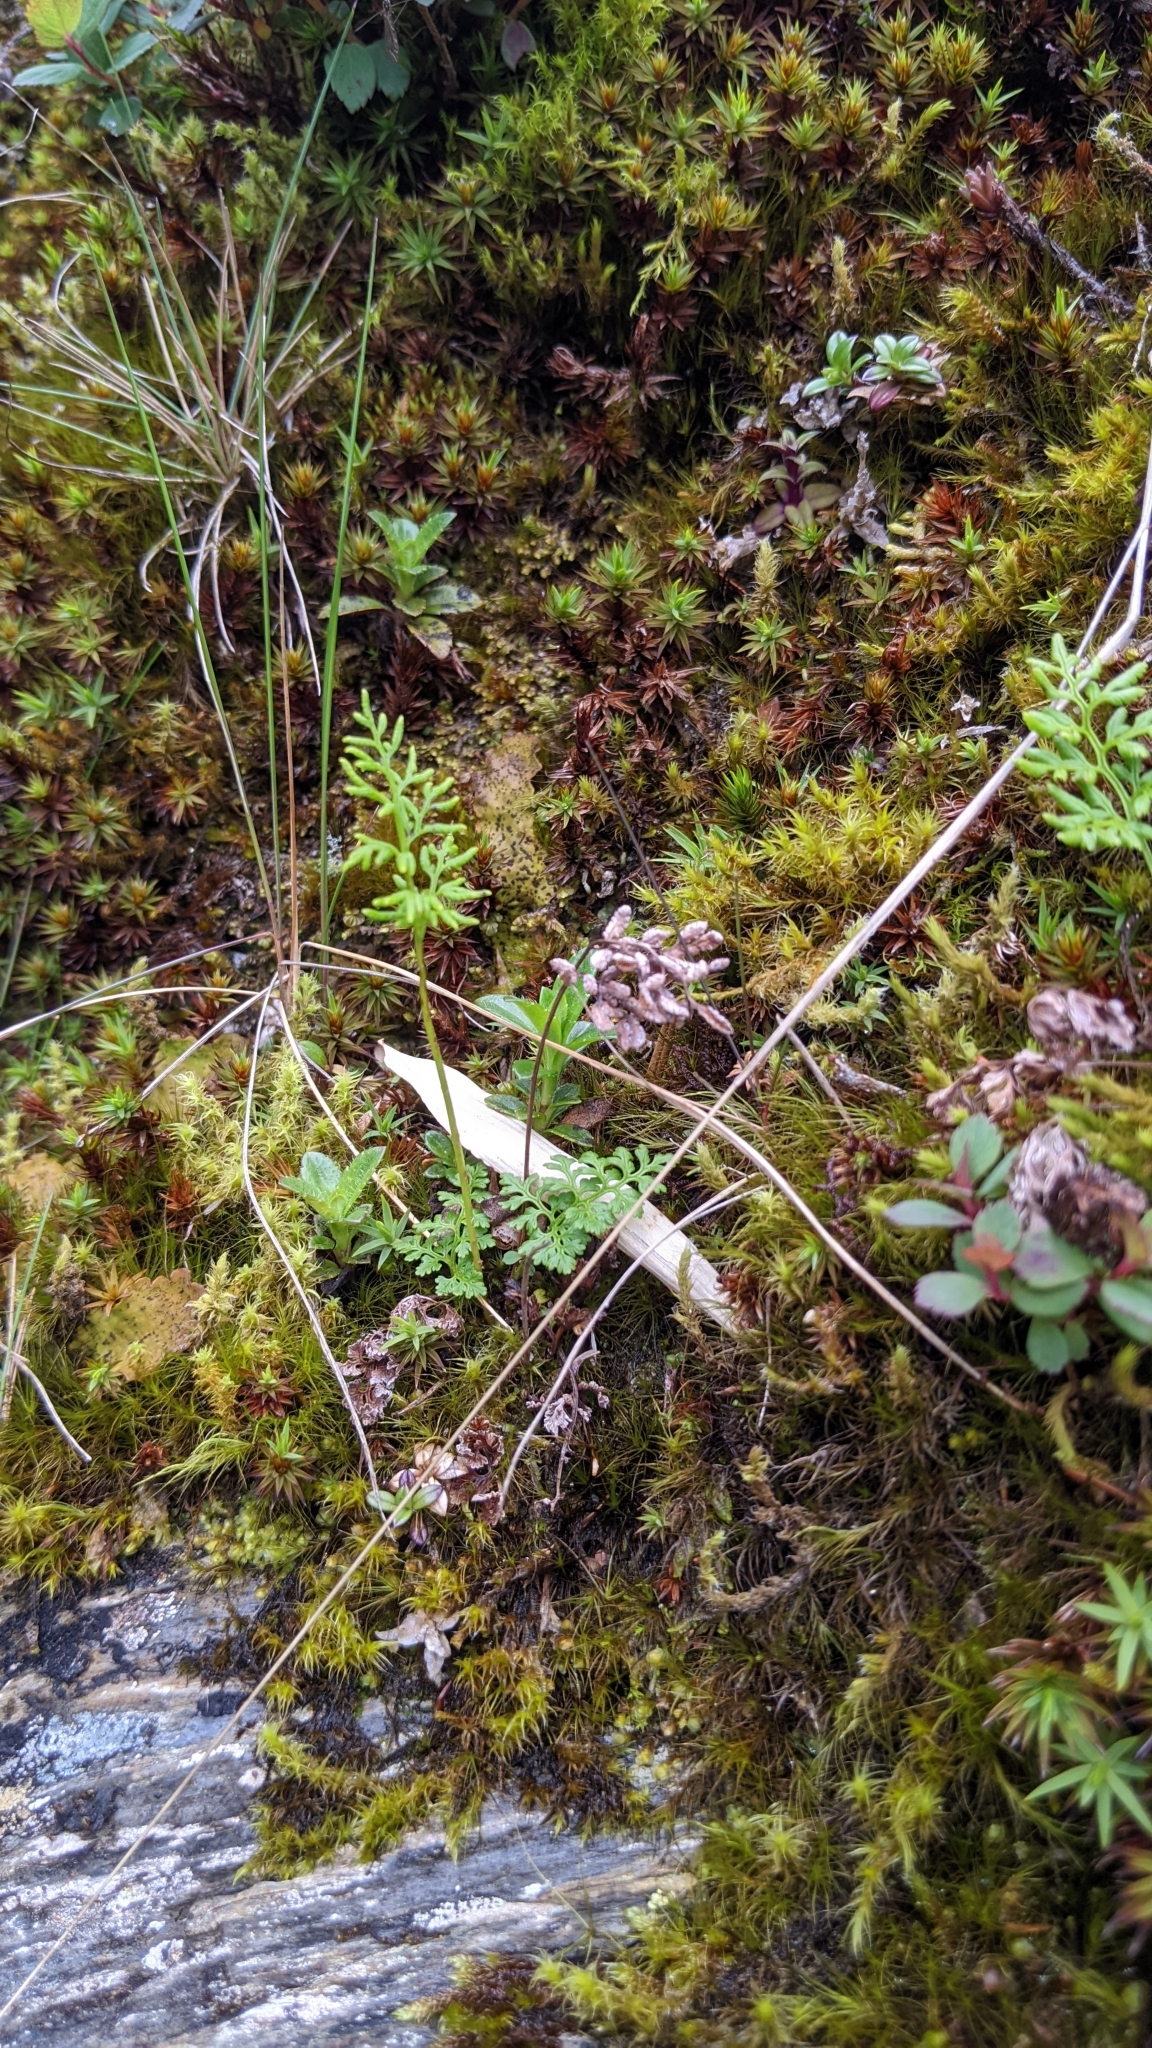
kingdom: Plantae
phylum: Tracheophyta
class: Polypodiopsida
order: Polypodiales
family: Pteridaceae
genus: Cryptogramma
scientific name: Cryptogramma brunoniana
